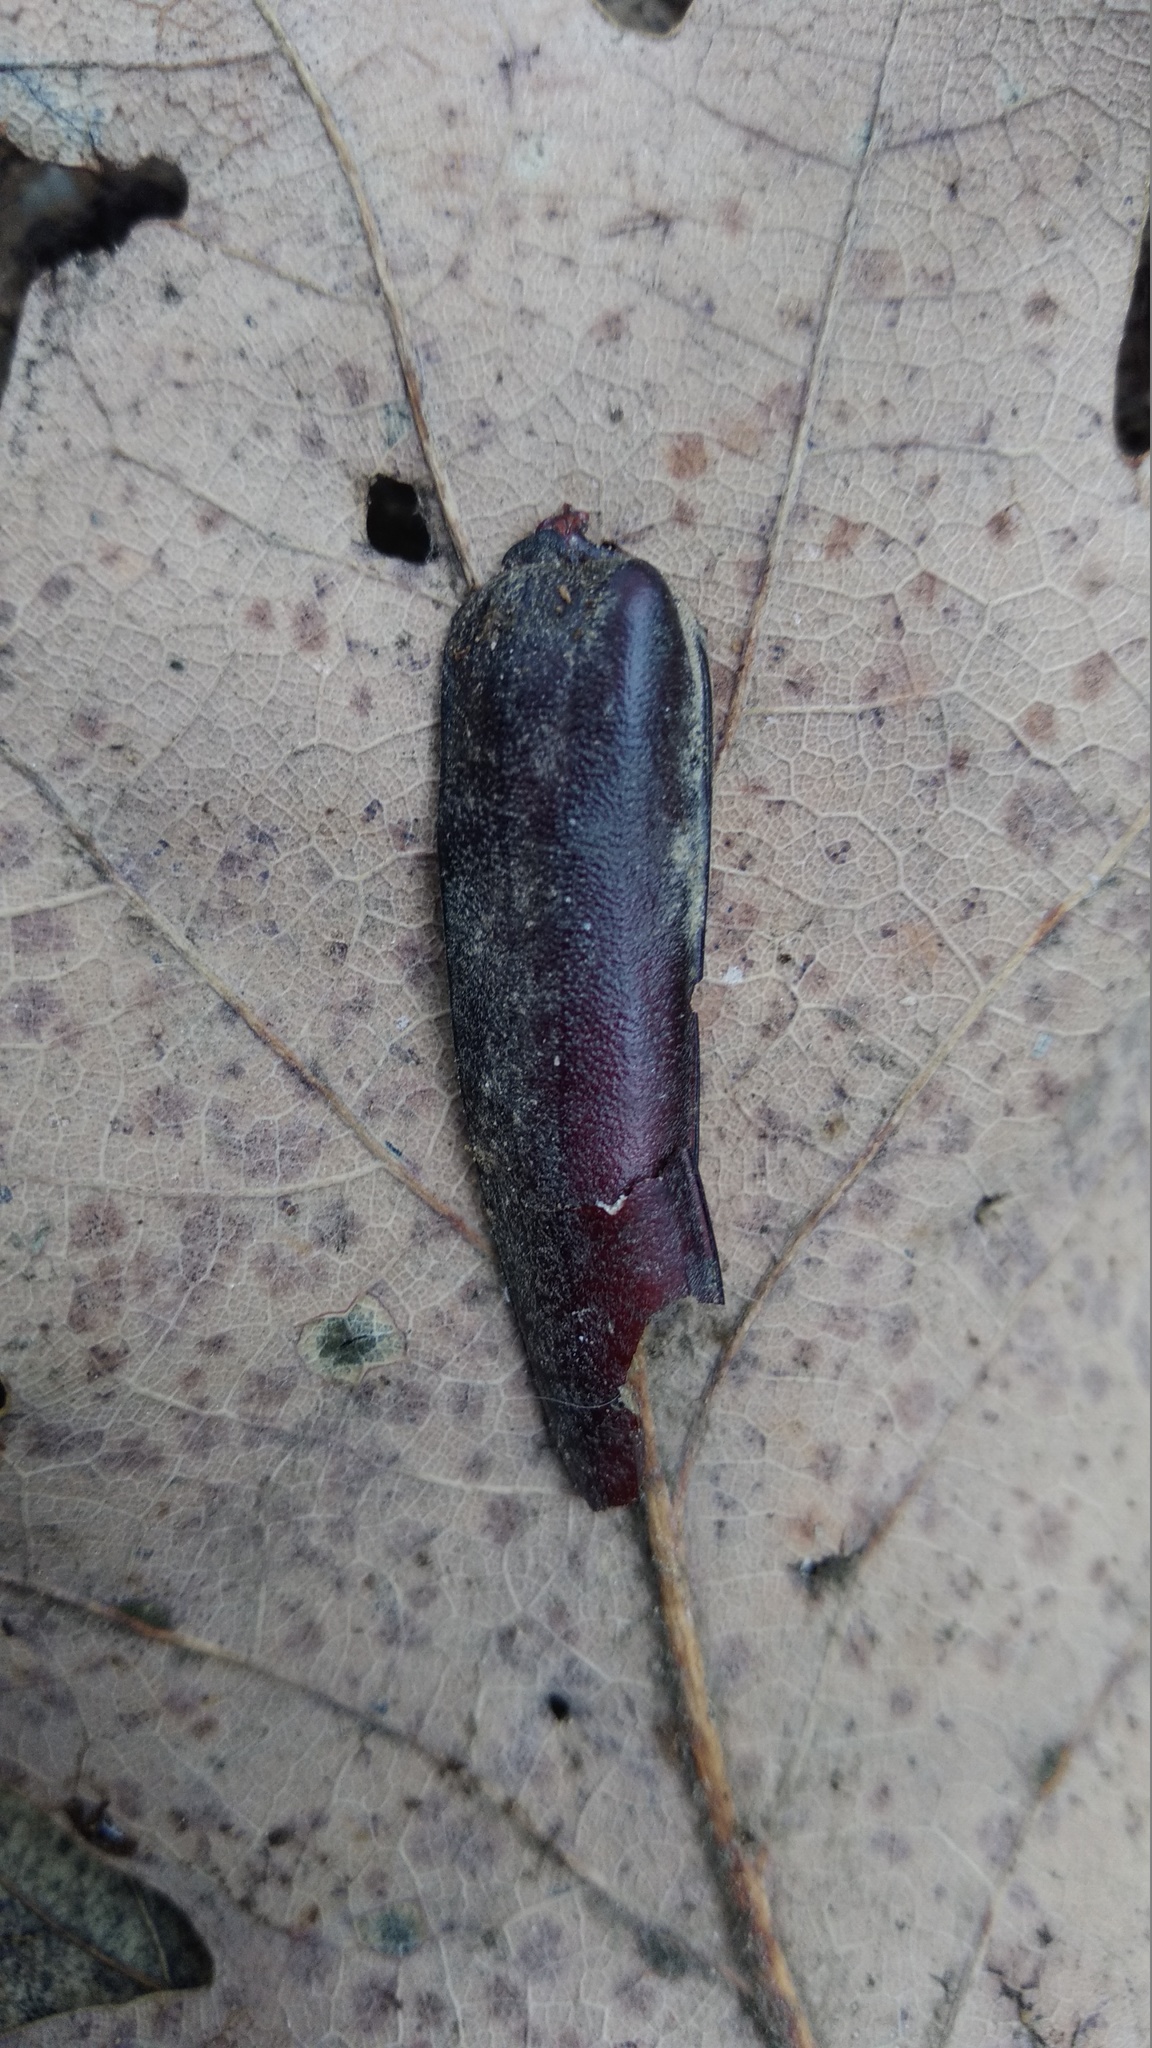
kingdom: Animalia
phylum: Arthropoda
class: Insecta
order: Coleoptera
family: Cerambycidae
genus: Cerambyx
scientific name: Cerambyx welensii
